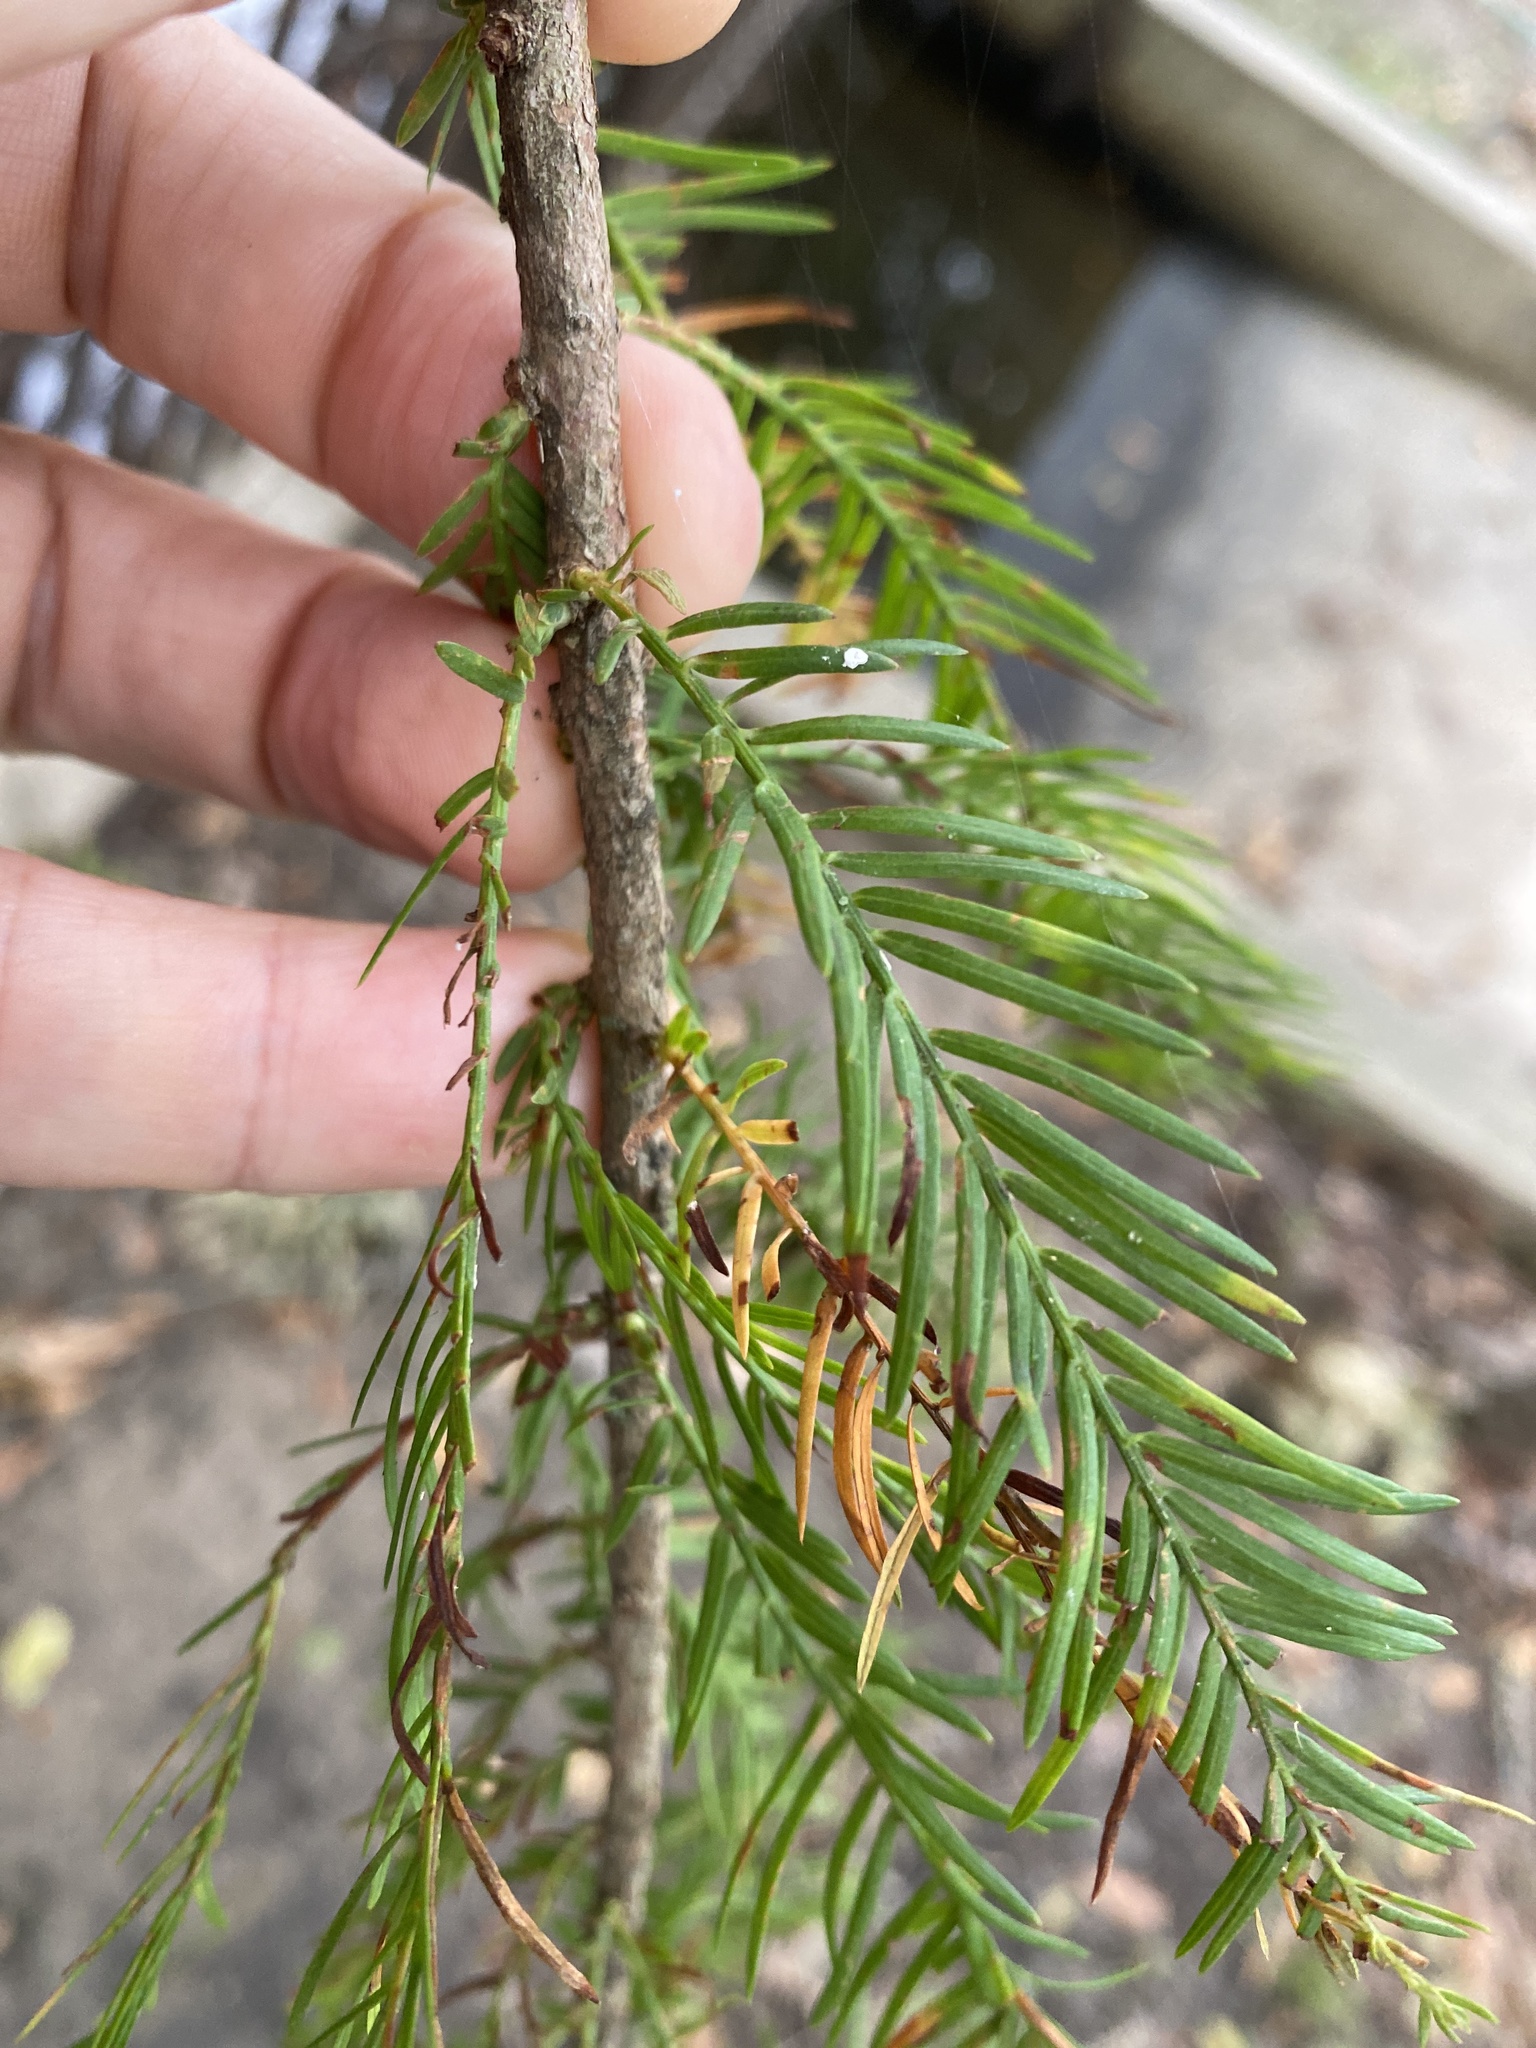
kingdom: Plantae
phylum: Tracheophyta
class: Pinopsida
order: Pinales
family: Cupressaceae
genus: Taxodium
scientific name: Taxodium distichum
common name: Bald cypress
